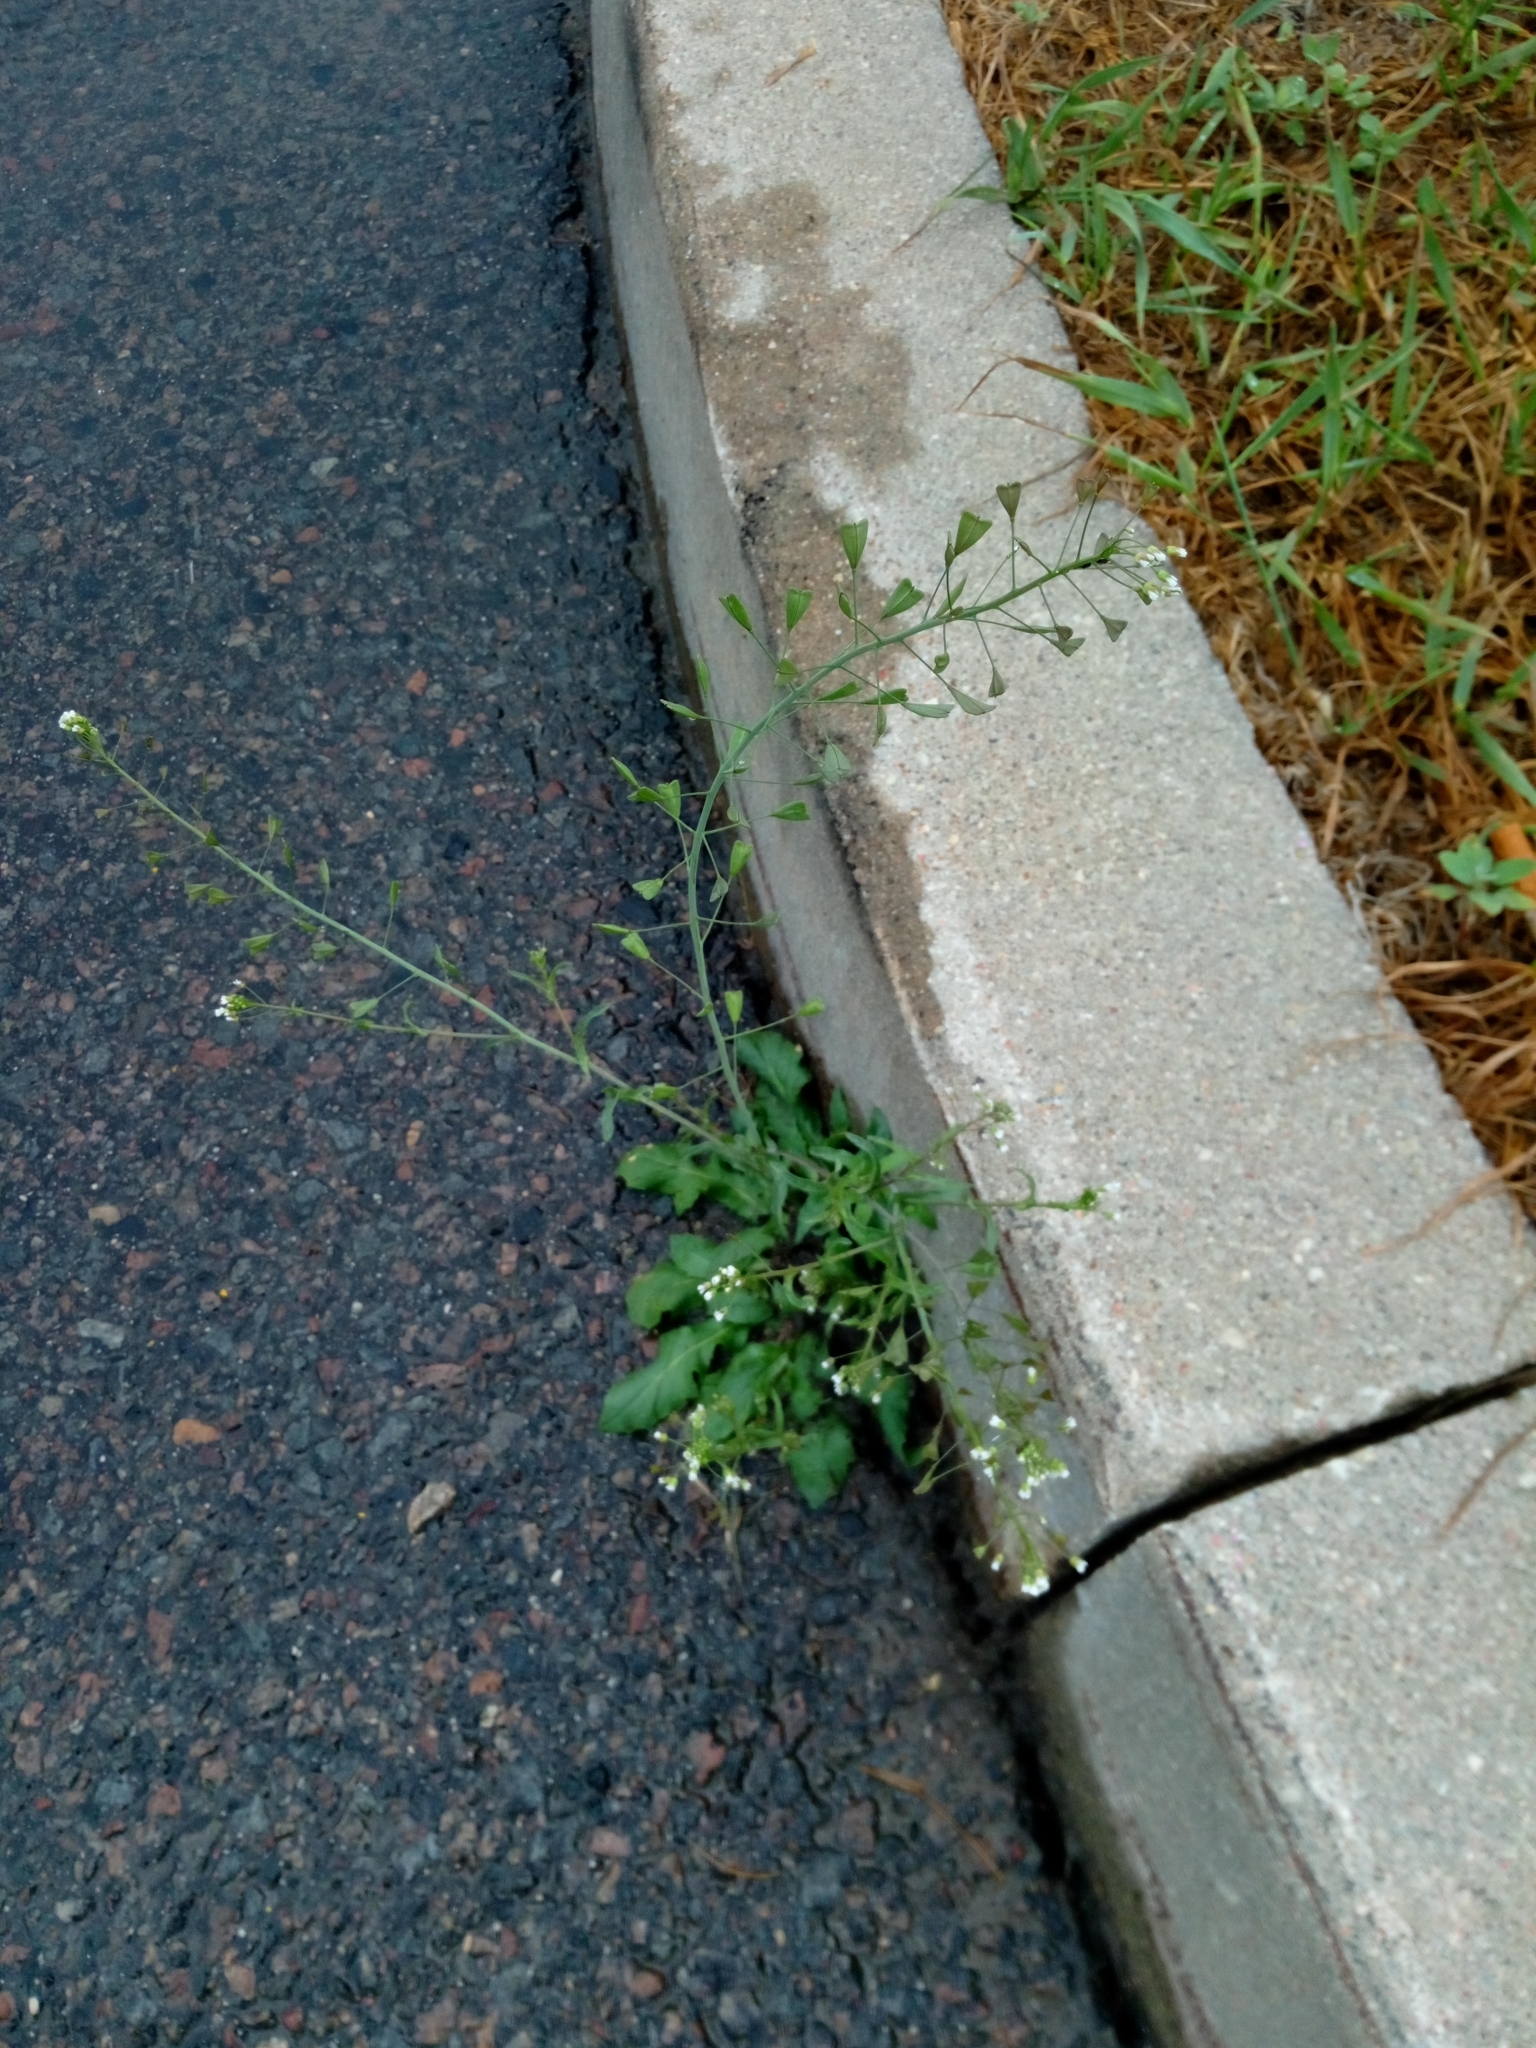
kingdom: Plantae
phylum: Tracheophyta
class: Magnoliopsida
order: Brassicales
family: Brassicaceae
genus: Capsella
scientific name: Capsella bursa-pastoris
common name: Shepherd's purse
